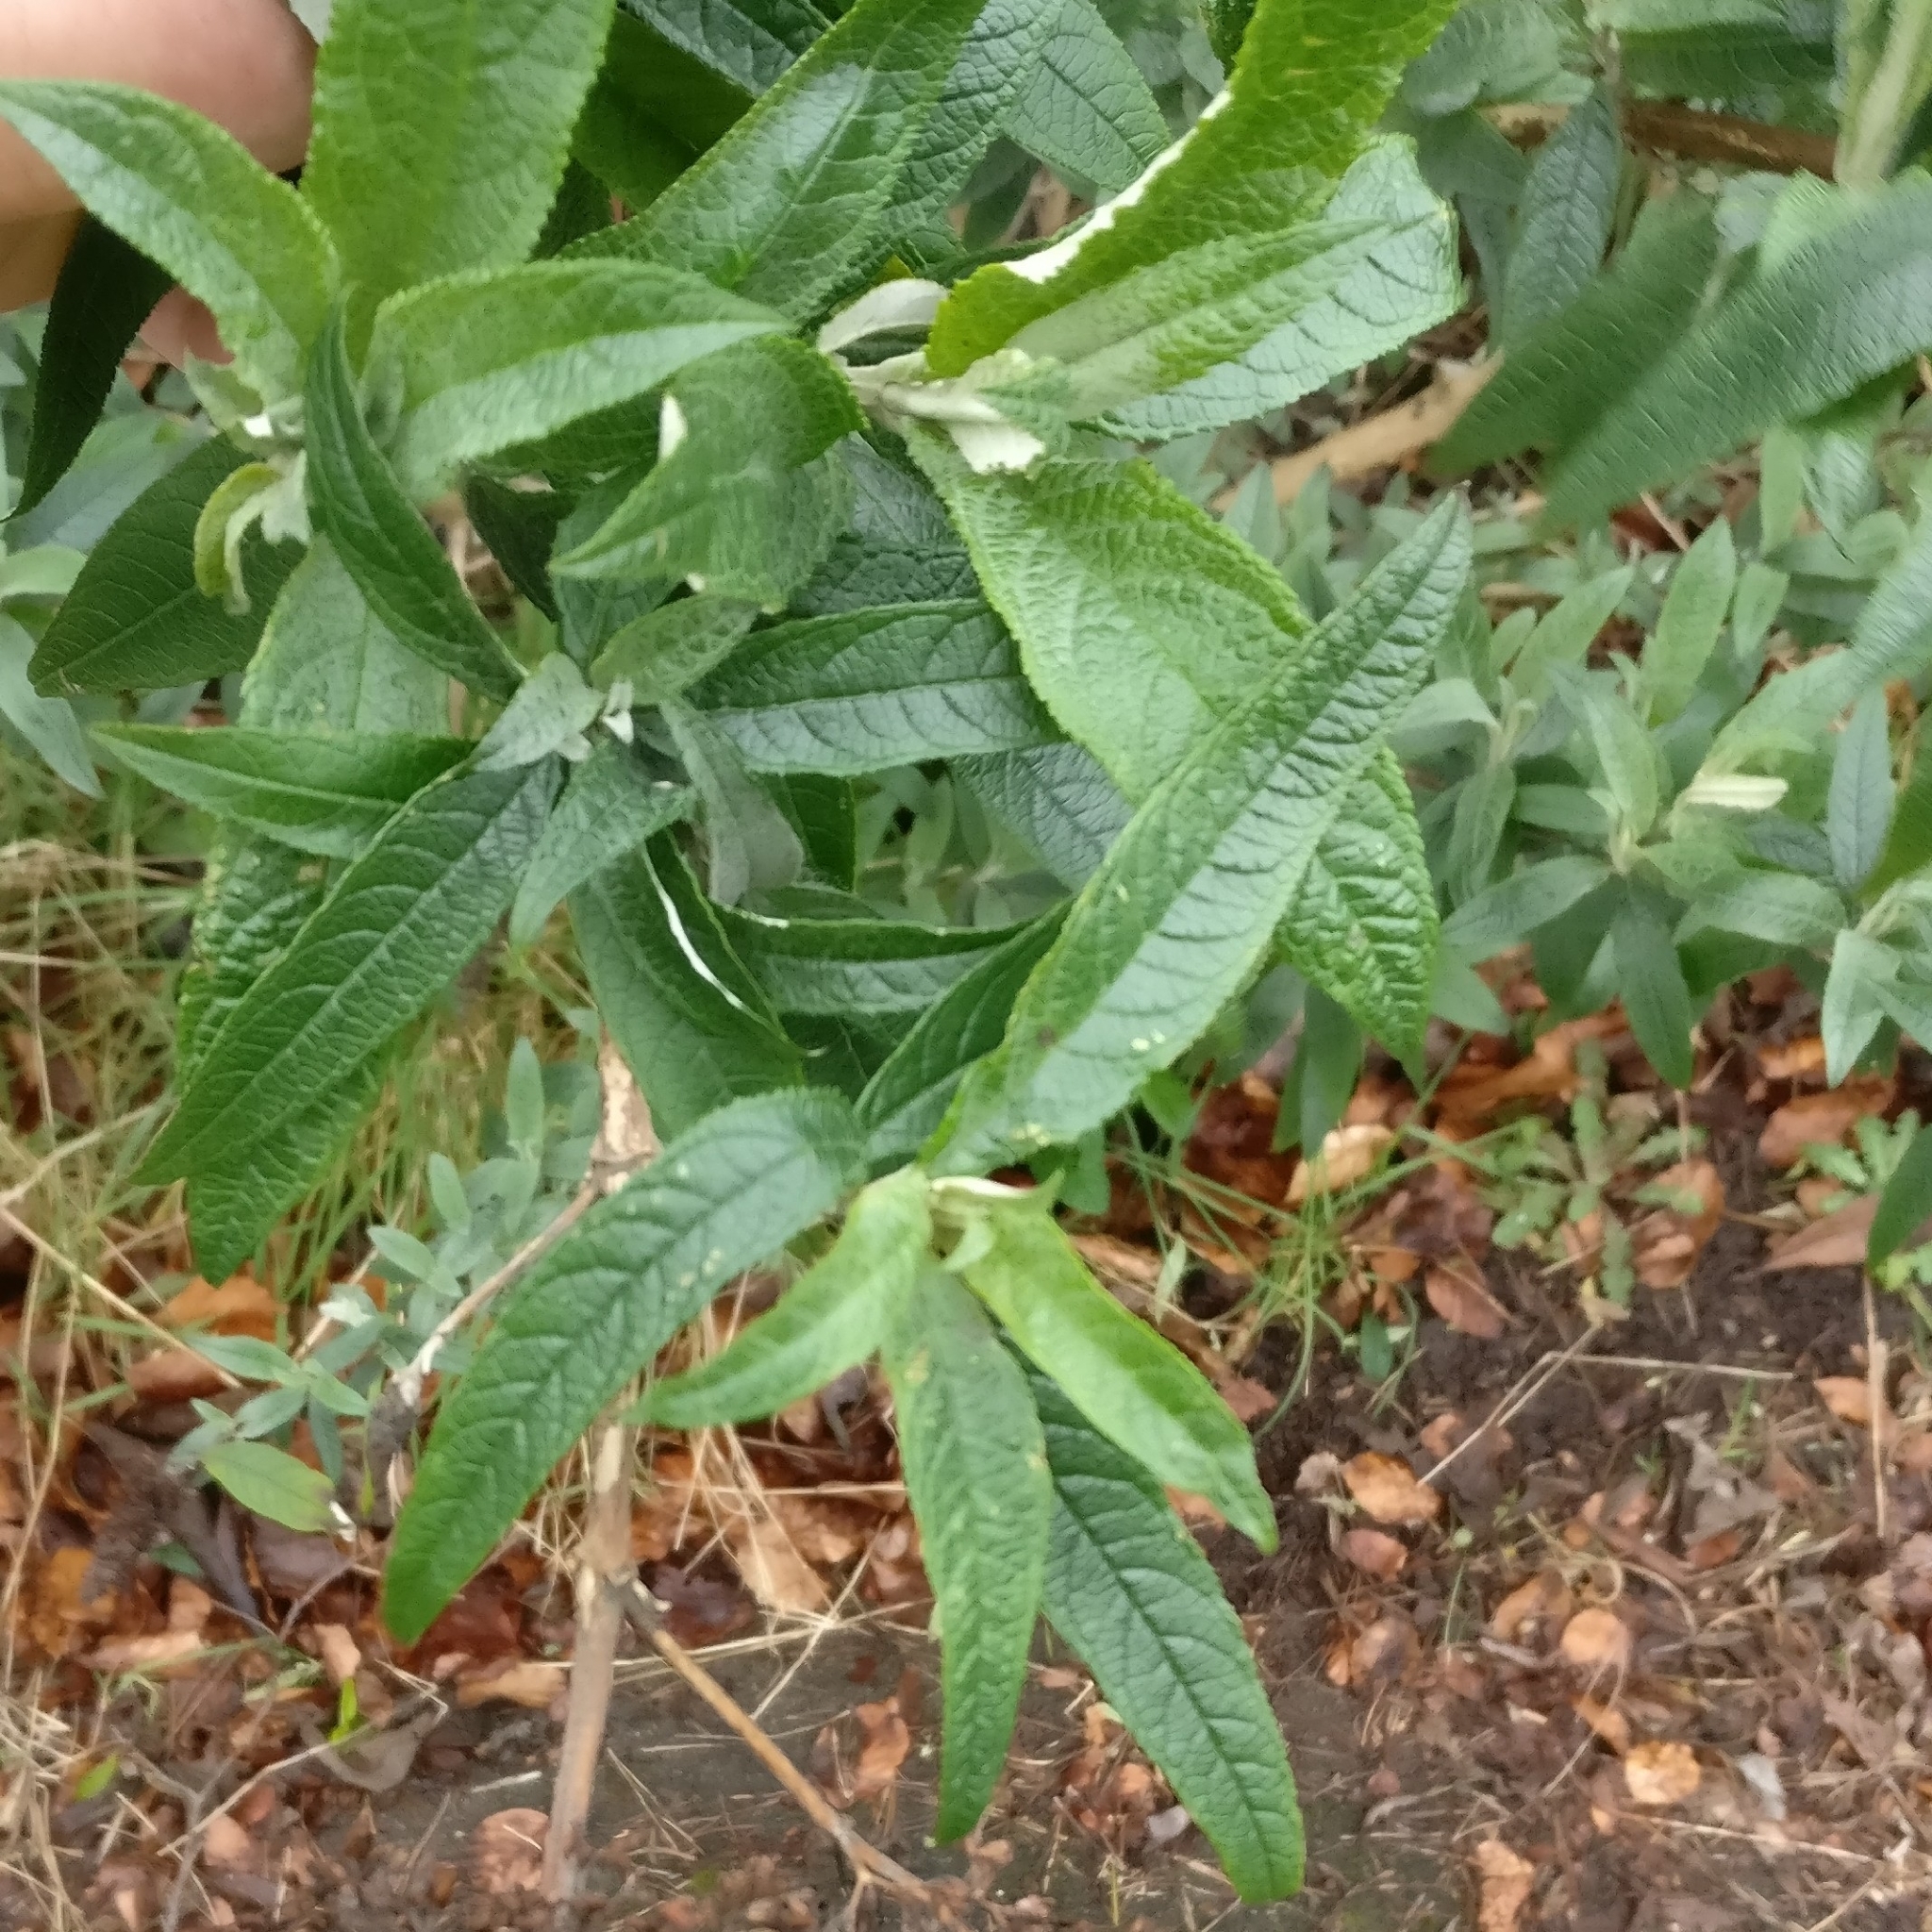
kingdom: Plantae
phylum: Tracheophyta
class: Magnoliopsida
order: Lamiales
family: Scrophulariaceae
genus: Buddleja
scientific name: Buddleja davidii
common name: Butterfly-bush
